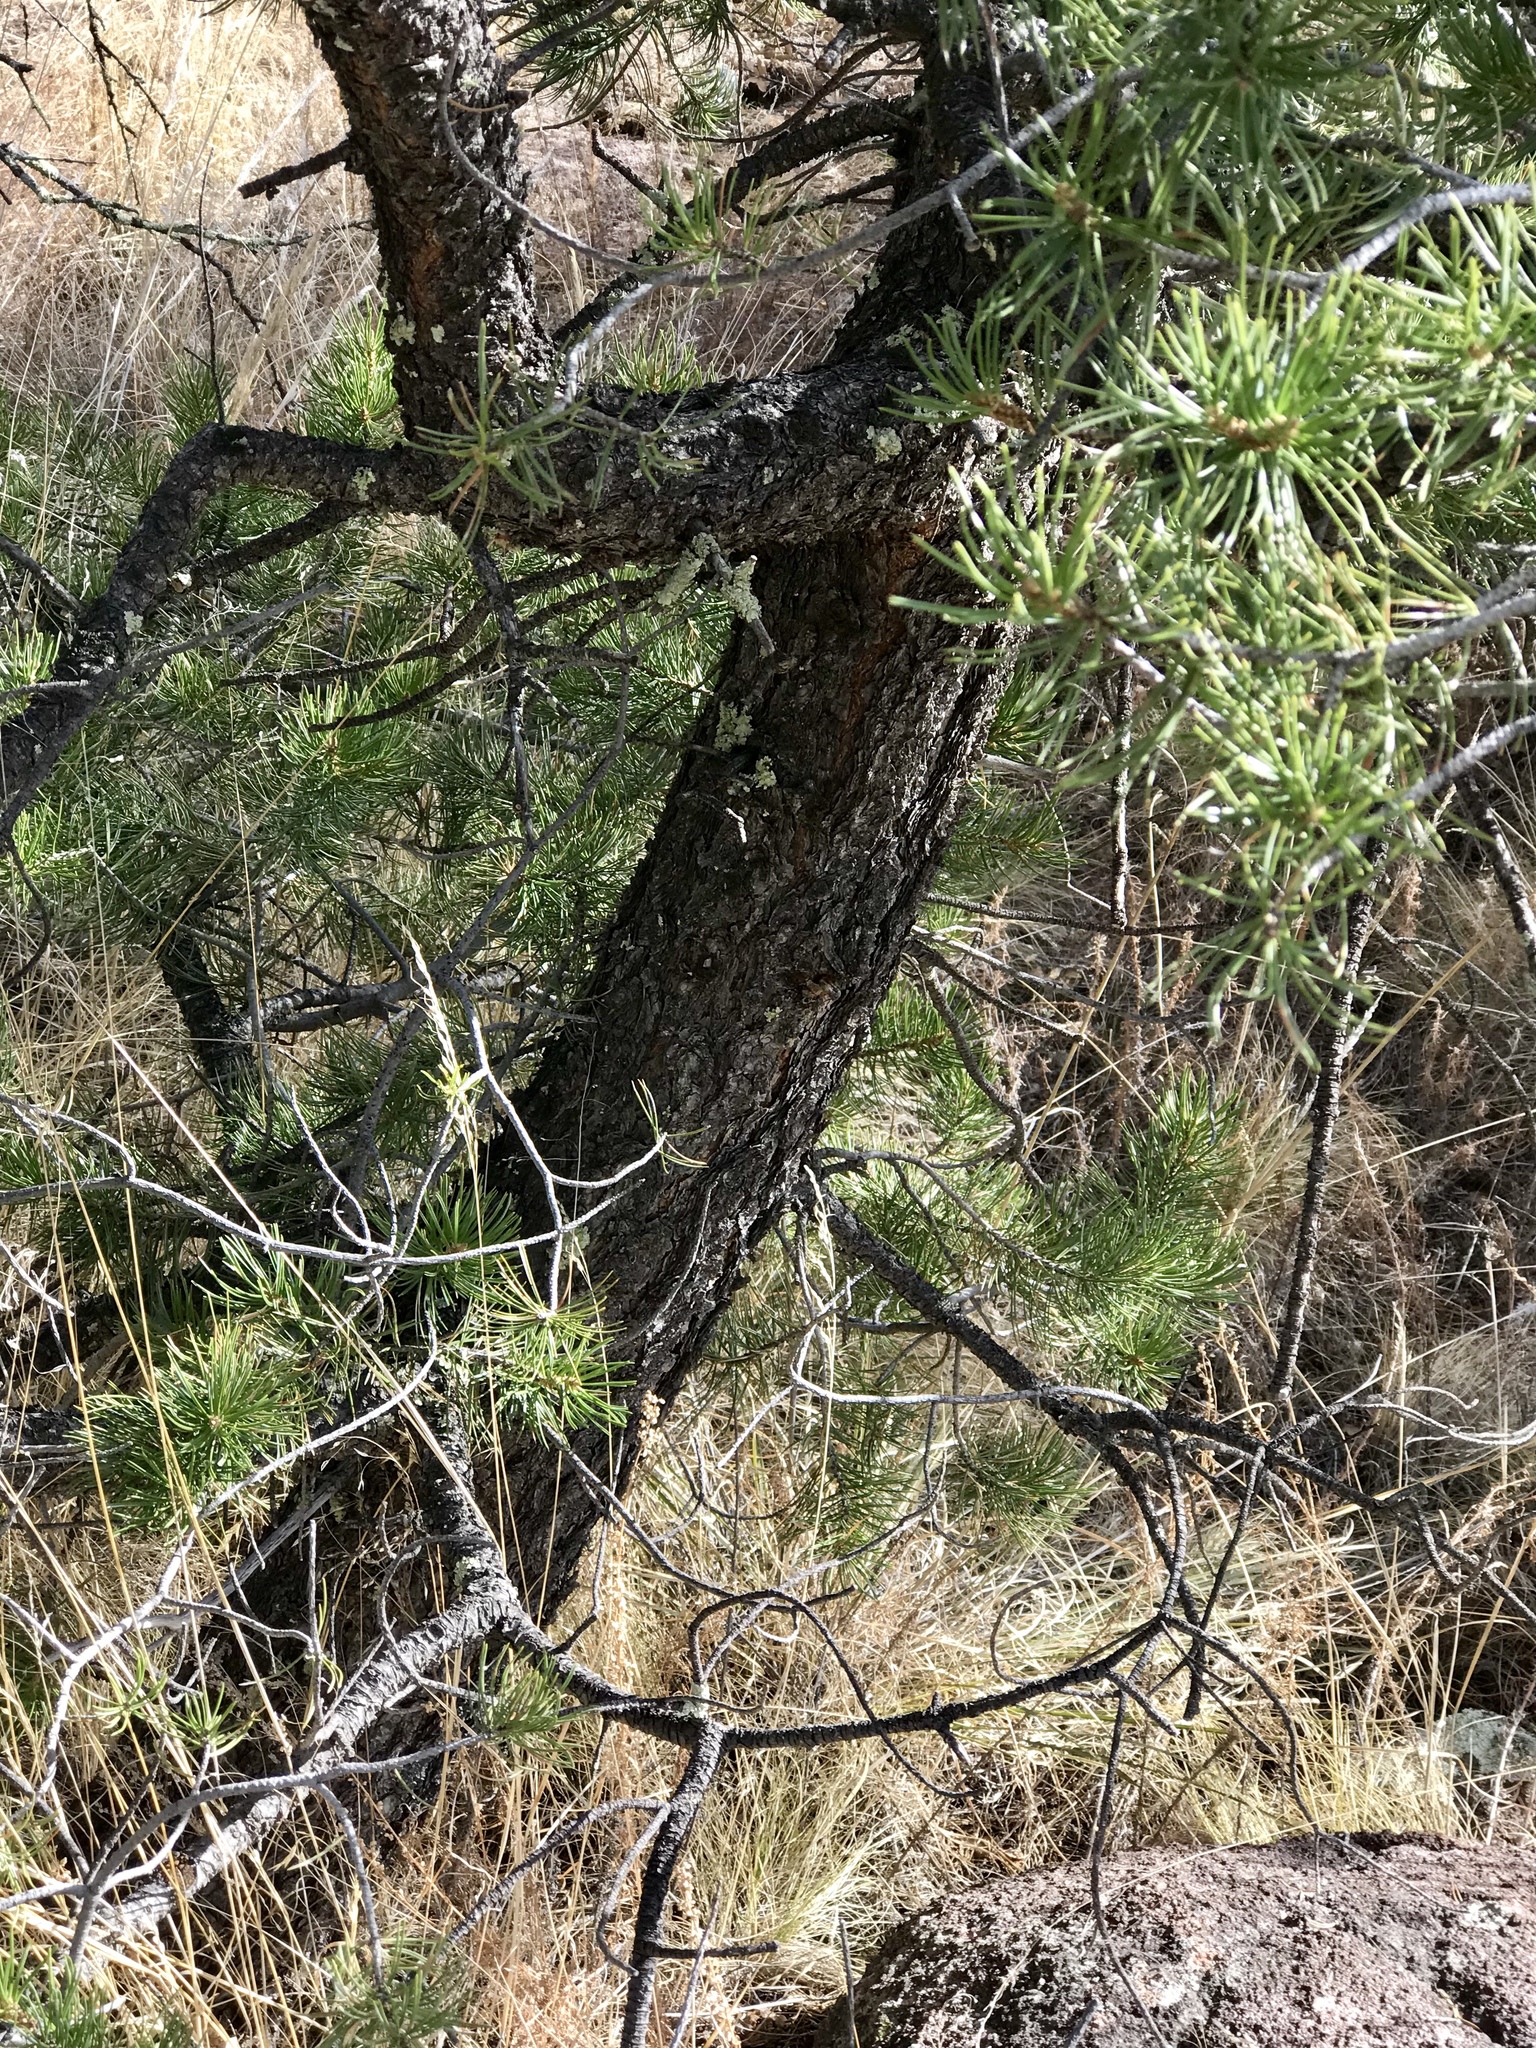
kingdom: Plantae
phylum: Tracheophyta
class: Pinopsida
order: Pinales
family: Pinaceae
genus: Pinus
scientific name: Pinus edulis
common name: Colorado pinyon
